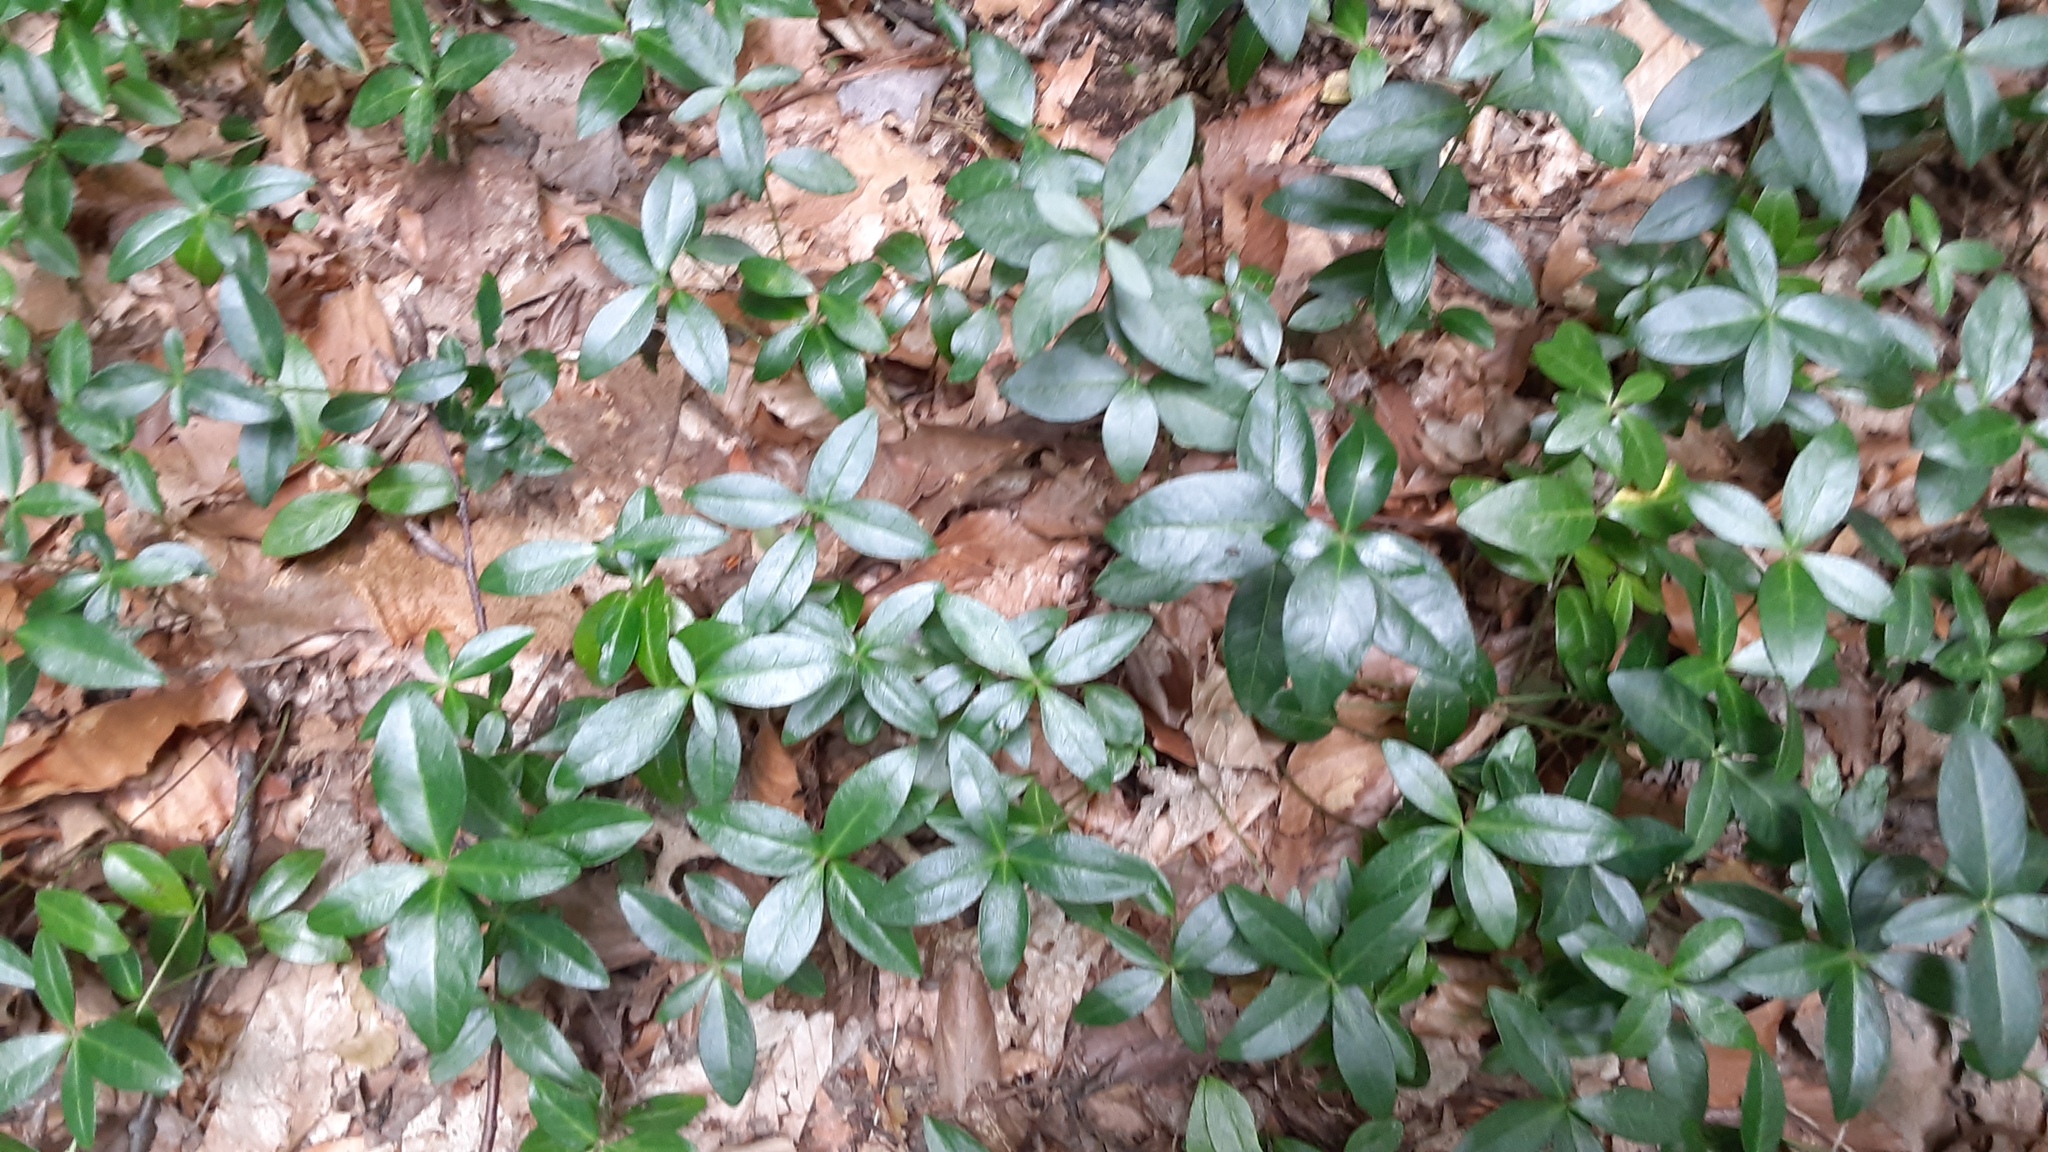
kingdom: Plantae
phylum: Tracheophyta
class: Magnoliopsida
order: Gentianales
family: Apocynaceae
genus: Vinca
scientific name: Vinca minor
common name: Lesser periwinkle
